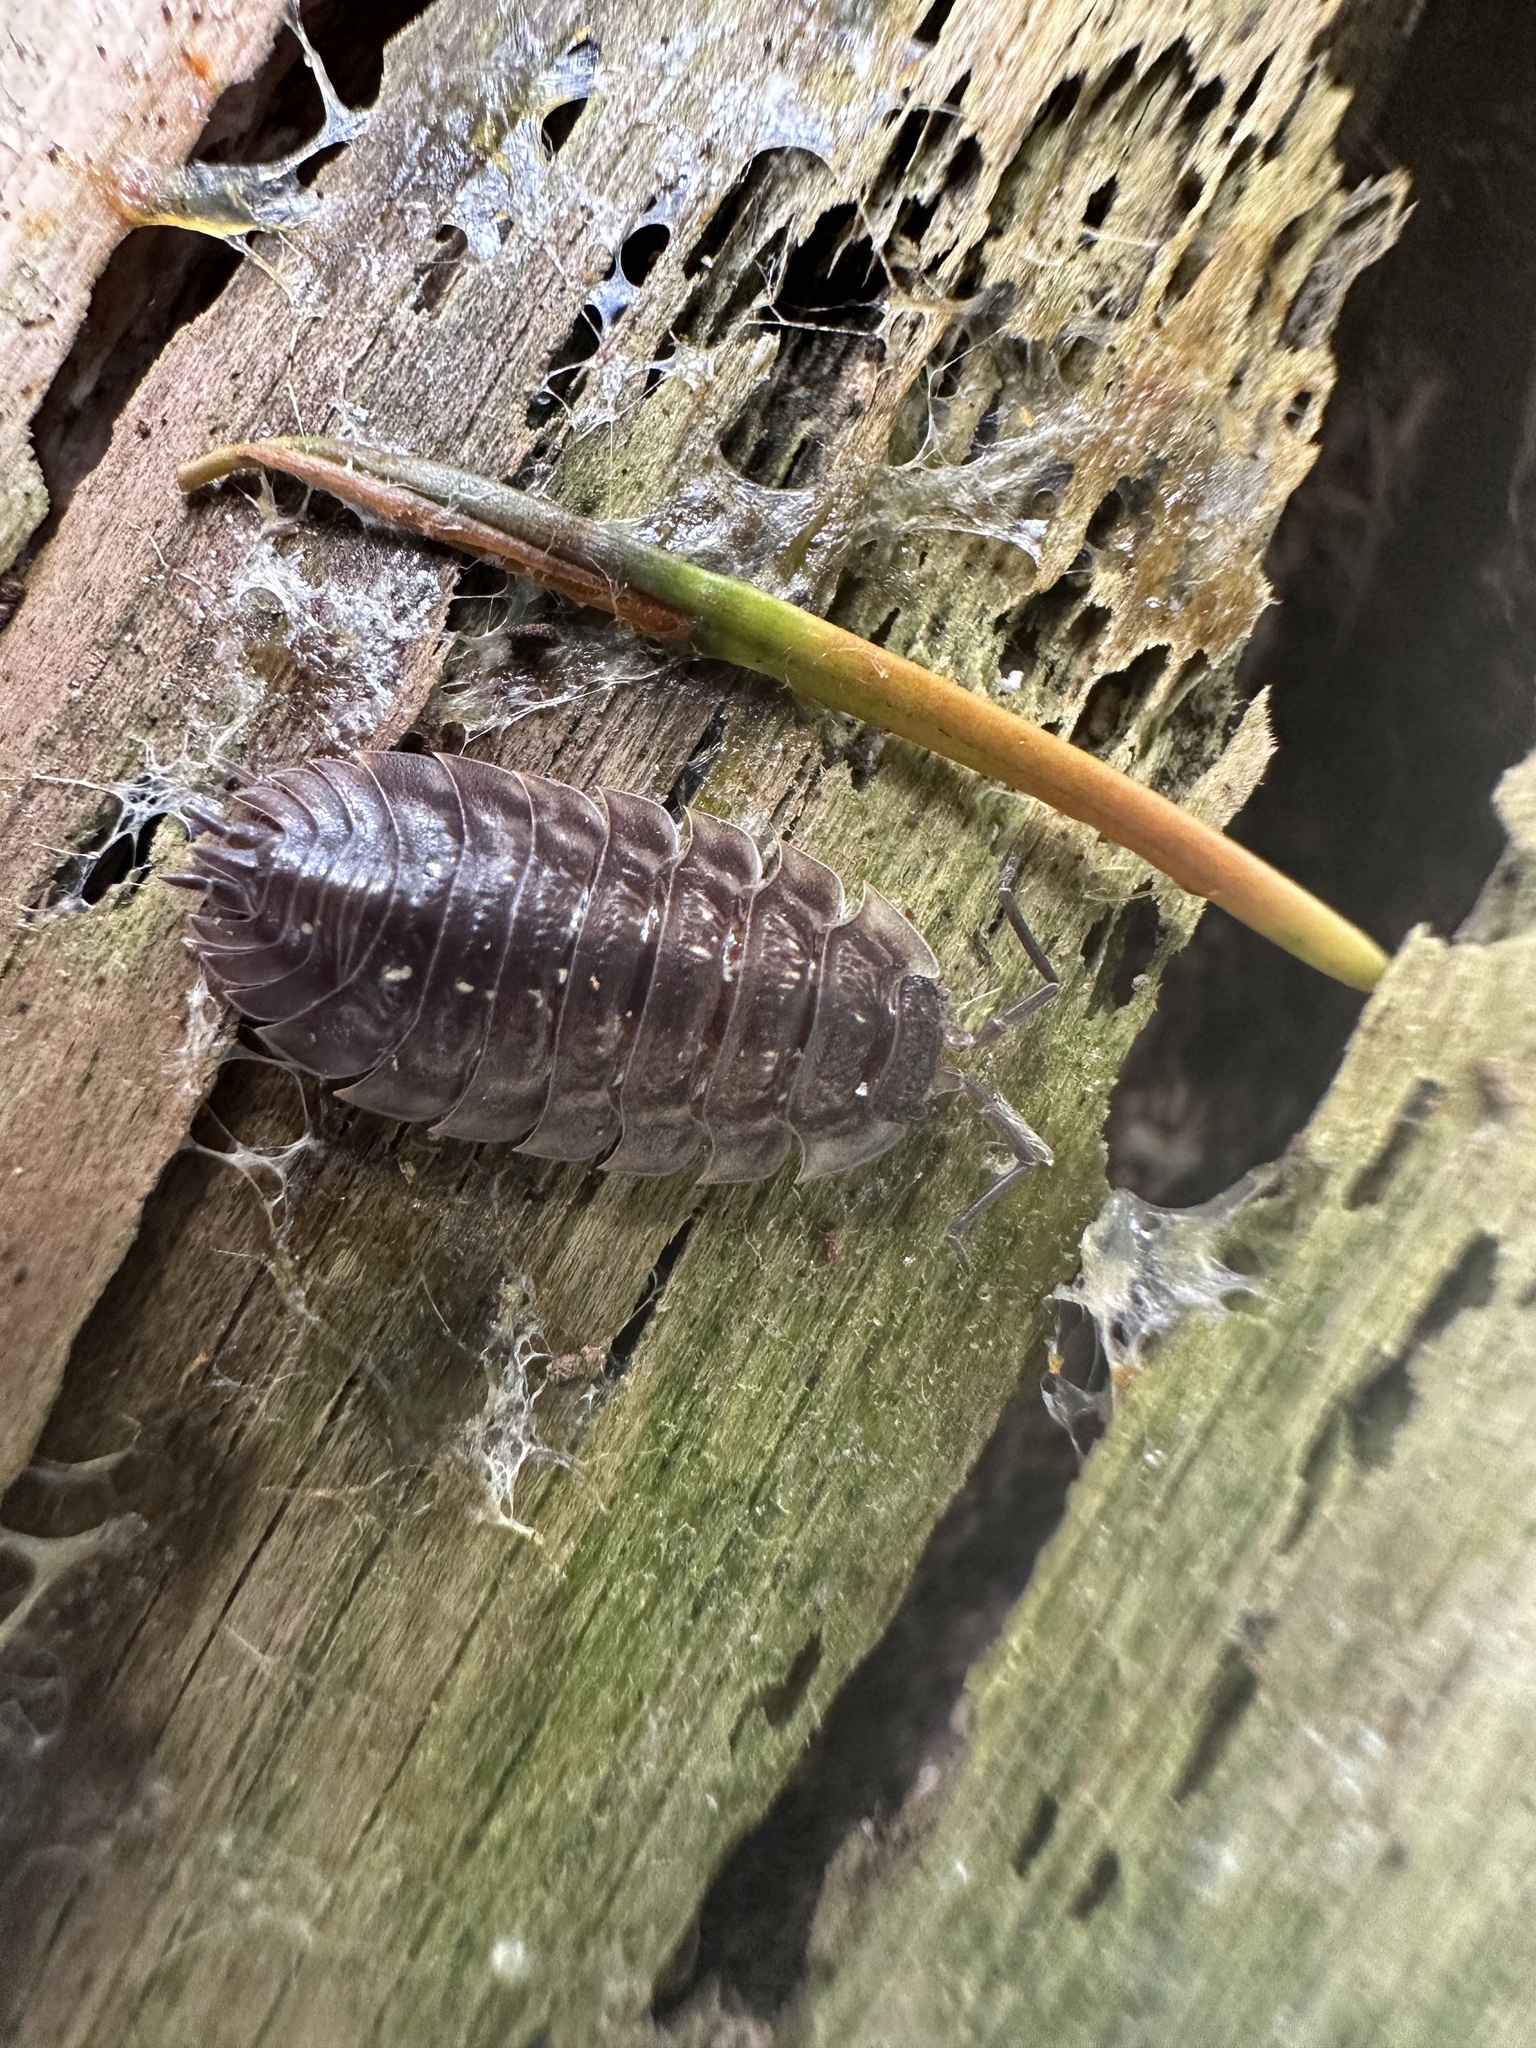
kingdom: Animalia
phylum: Arthropoda
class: Malacostraca
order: Isopoda
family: Oniscidae
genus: Oniscus
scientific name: Oniscus asellus
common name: Common shiny woodlouse
